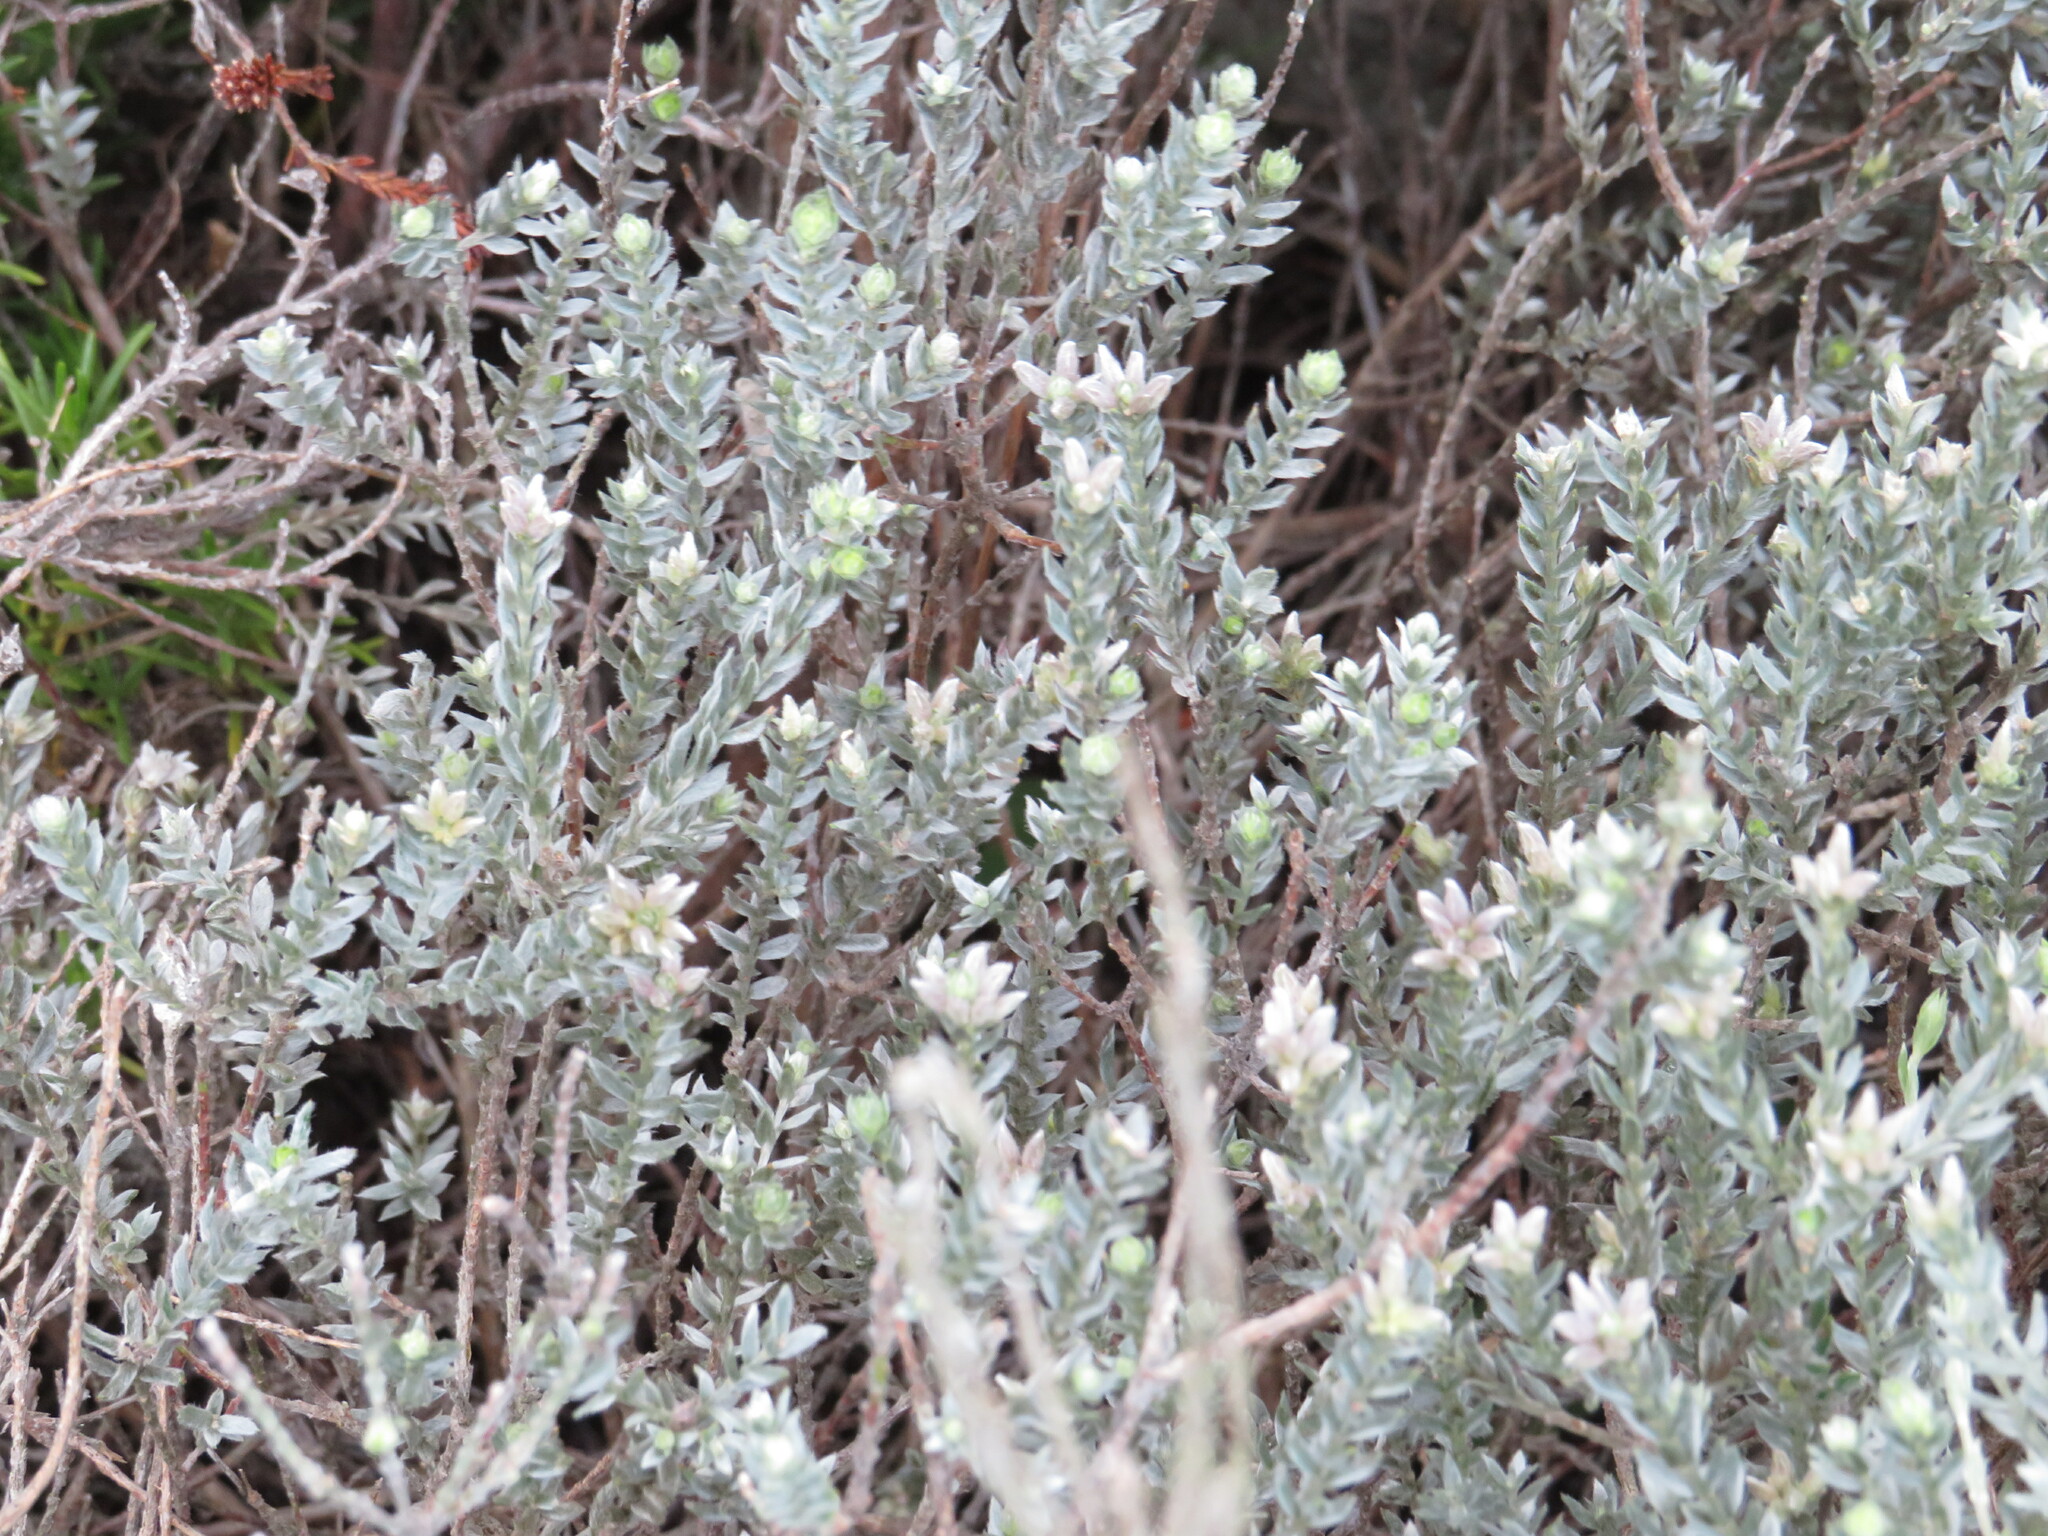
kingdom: Plantae
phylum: Tracheophyta
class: Magnoliopsida
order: Fabales
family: Fabaceae
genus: Amphithalea
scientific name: Amphithalea ericifolia
